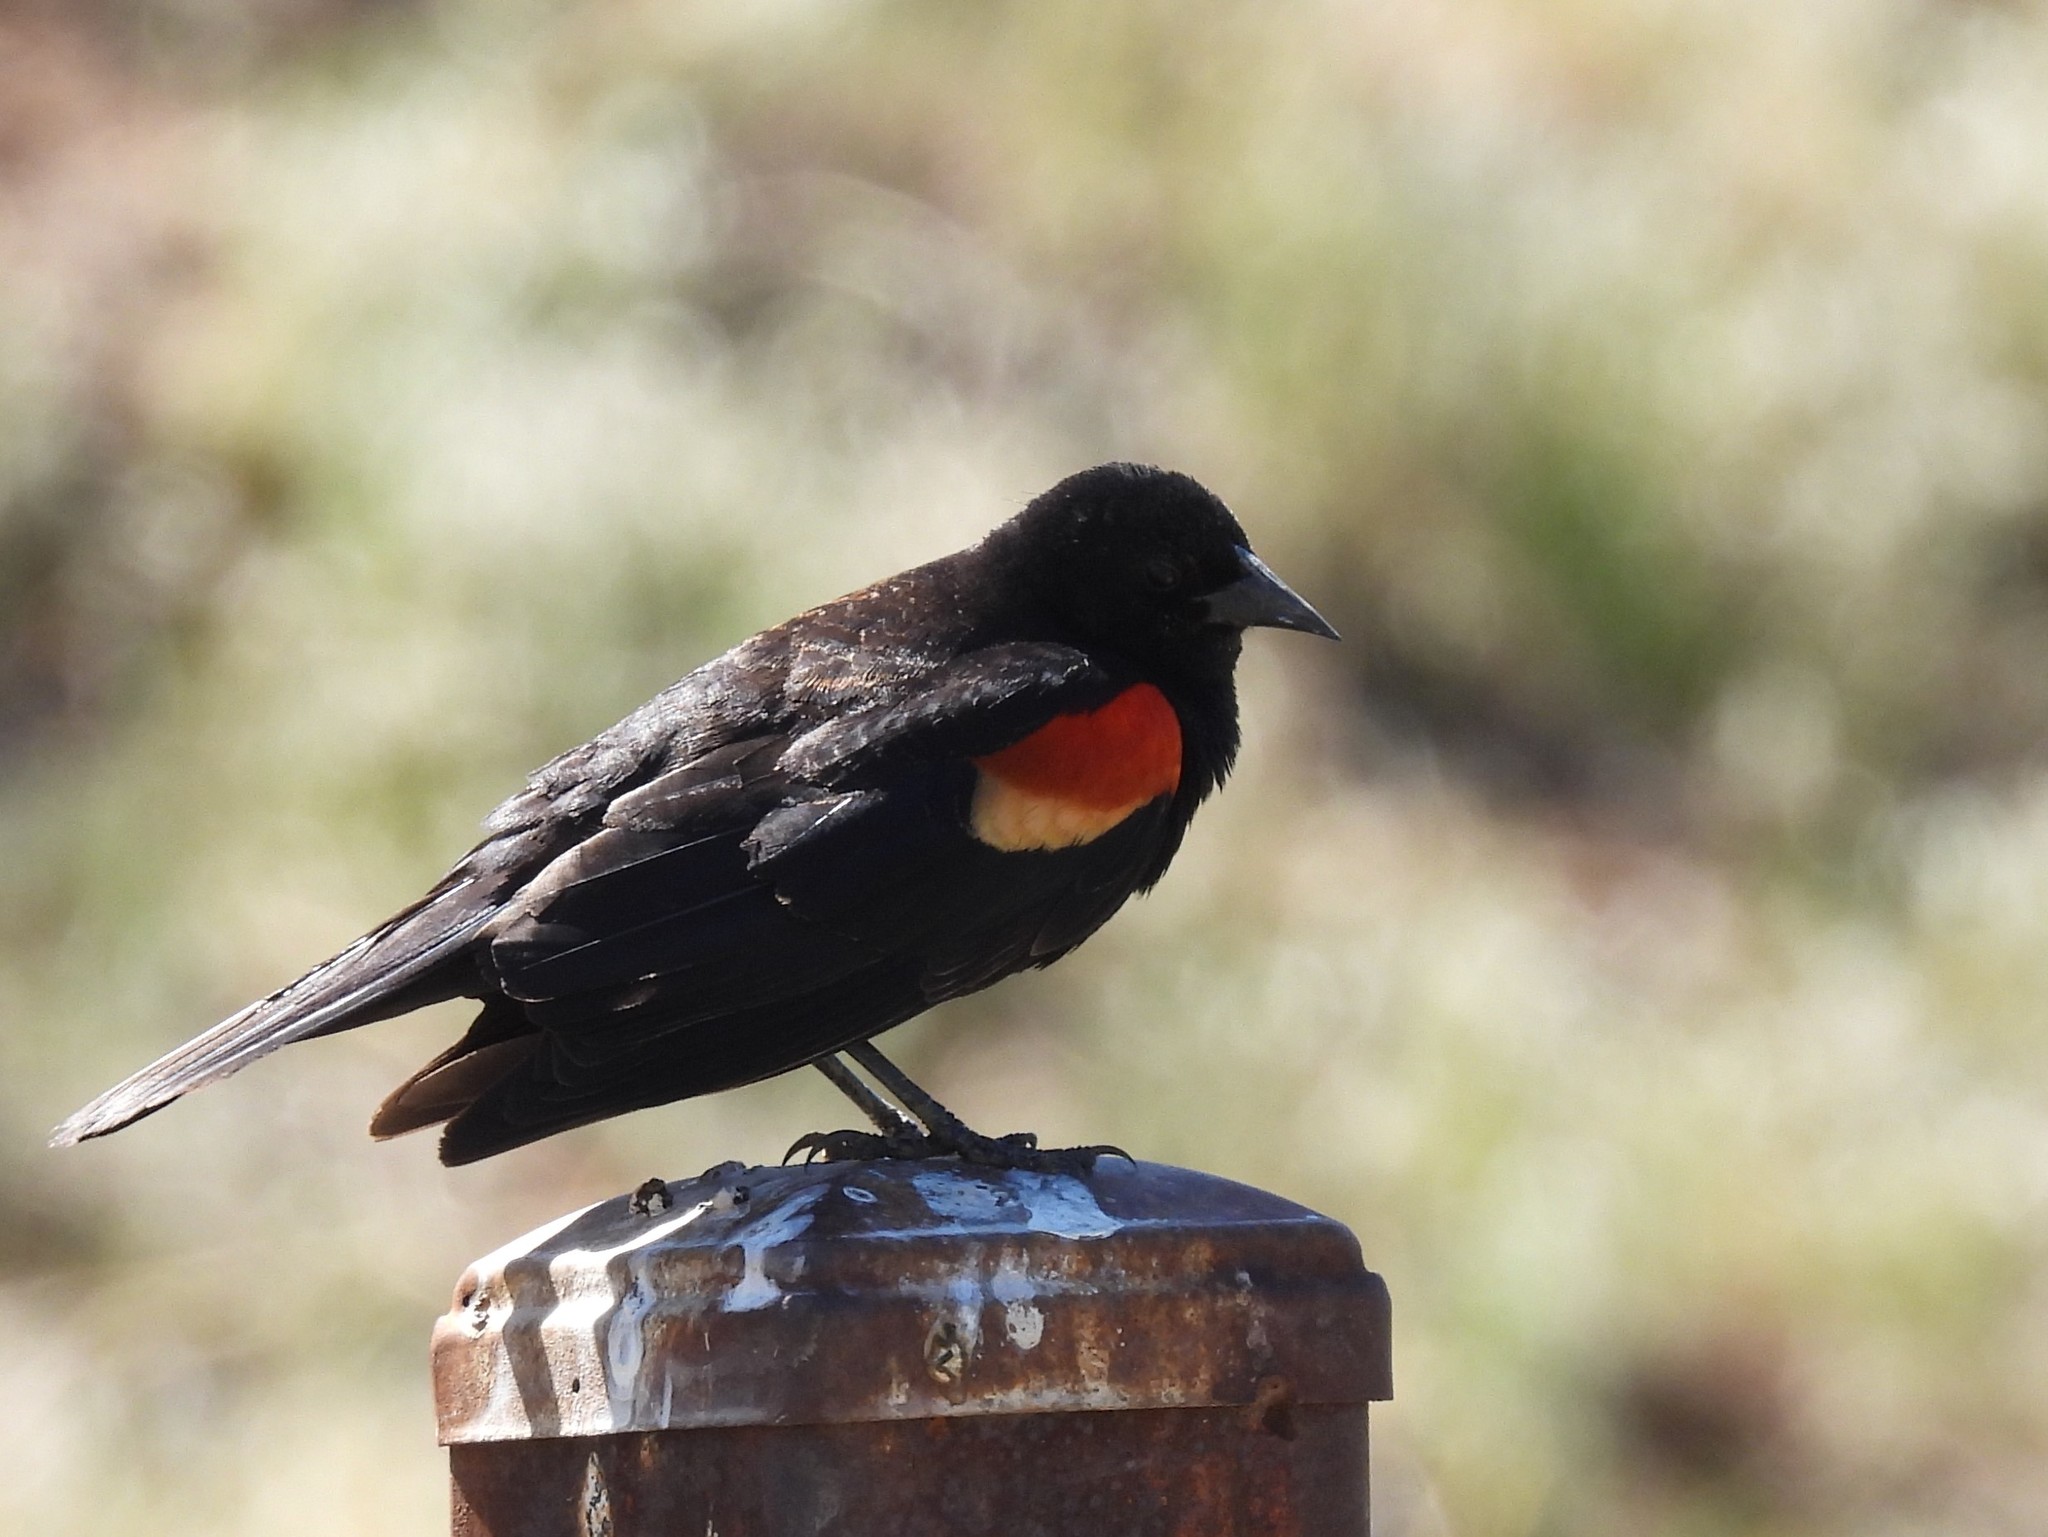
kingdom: Animalia
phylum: Chordata
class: Aves
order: Passeriformes
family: Icteridae
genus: Agelaius
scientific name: Agelaius phoeniceus
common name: Red-winged blackbird
